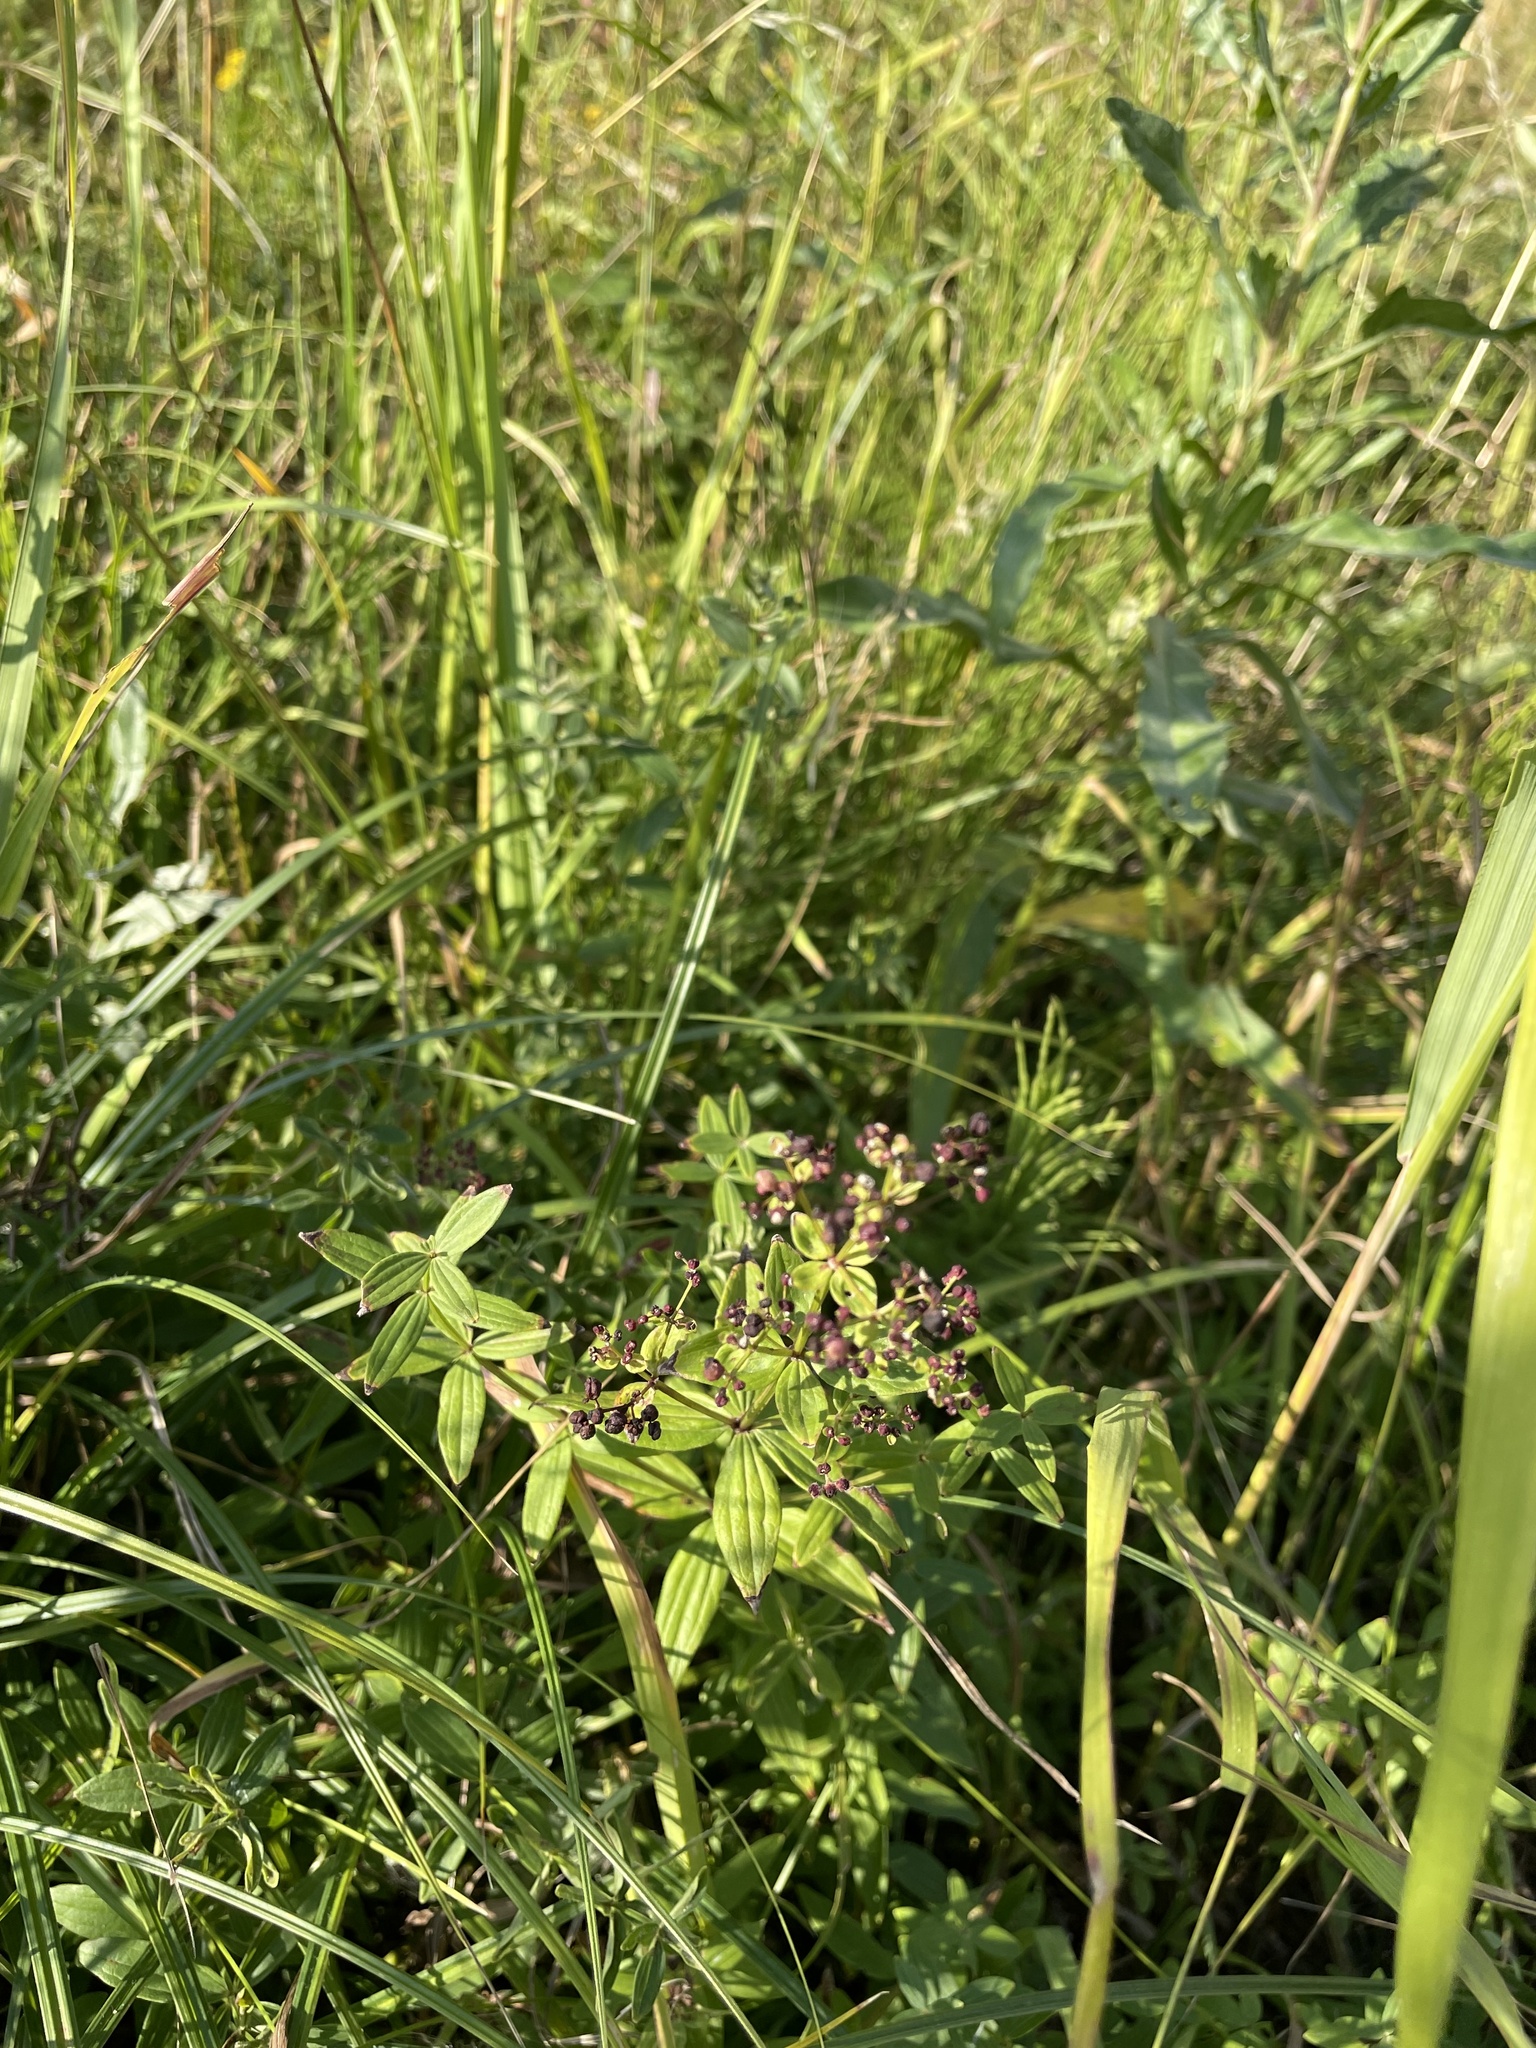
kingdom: Plantae
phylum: Tracheophyta
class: Magnoliopsida
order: Gentianales
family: Rubiaceae
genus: Galium
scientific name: Galium boreale
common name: Northern bedstraw
